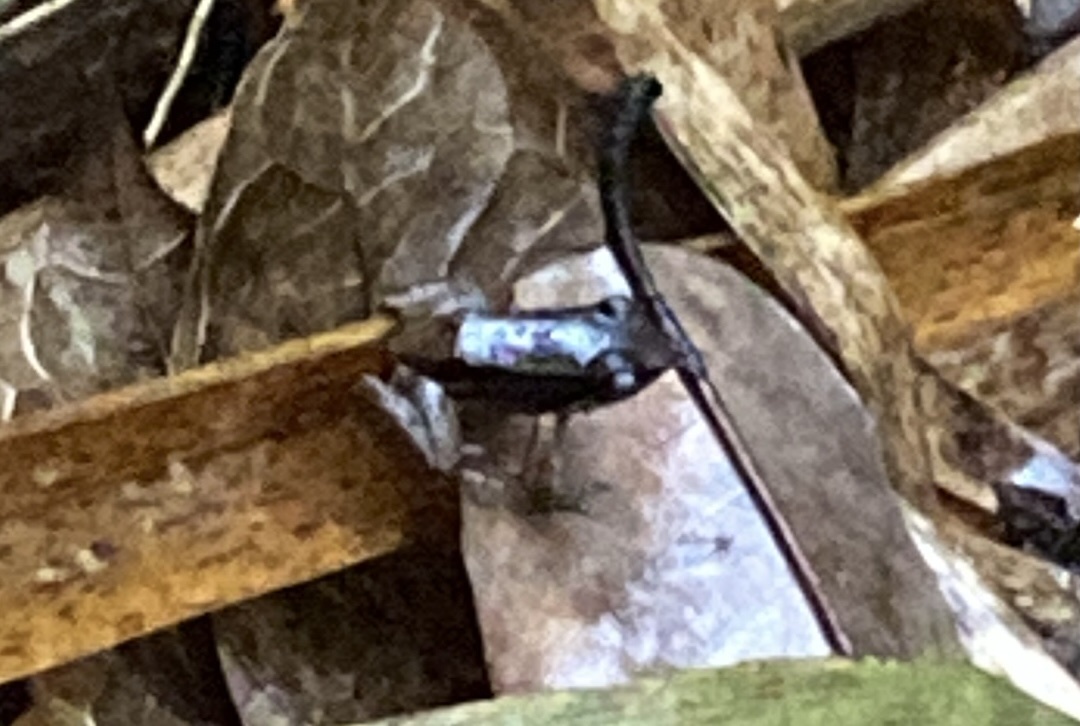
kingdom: Animalia
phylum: Chordata
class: Amphibia
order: Anura
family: Aromobatidae
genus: Mannophryne
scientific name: Mannophryne trinitatis
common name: Trinidad poison frog
